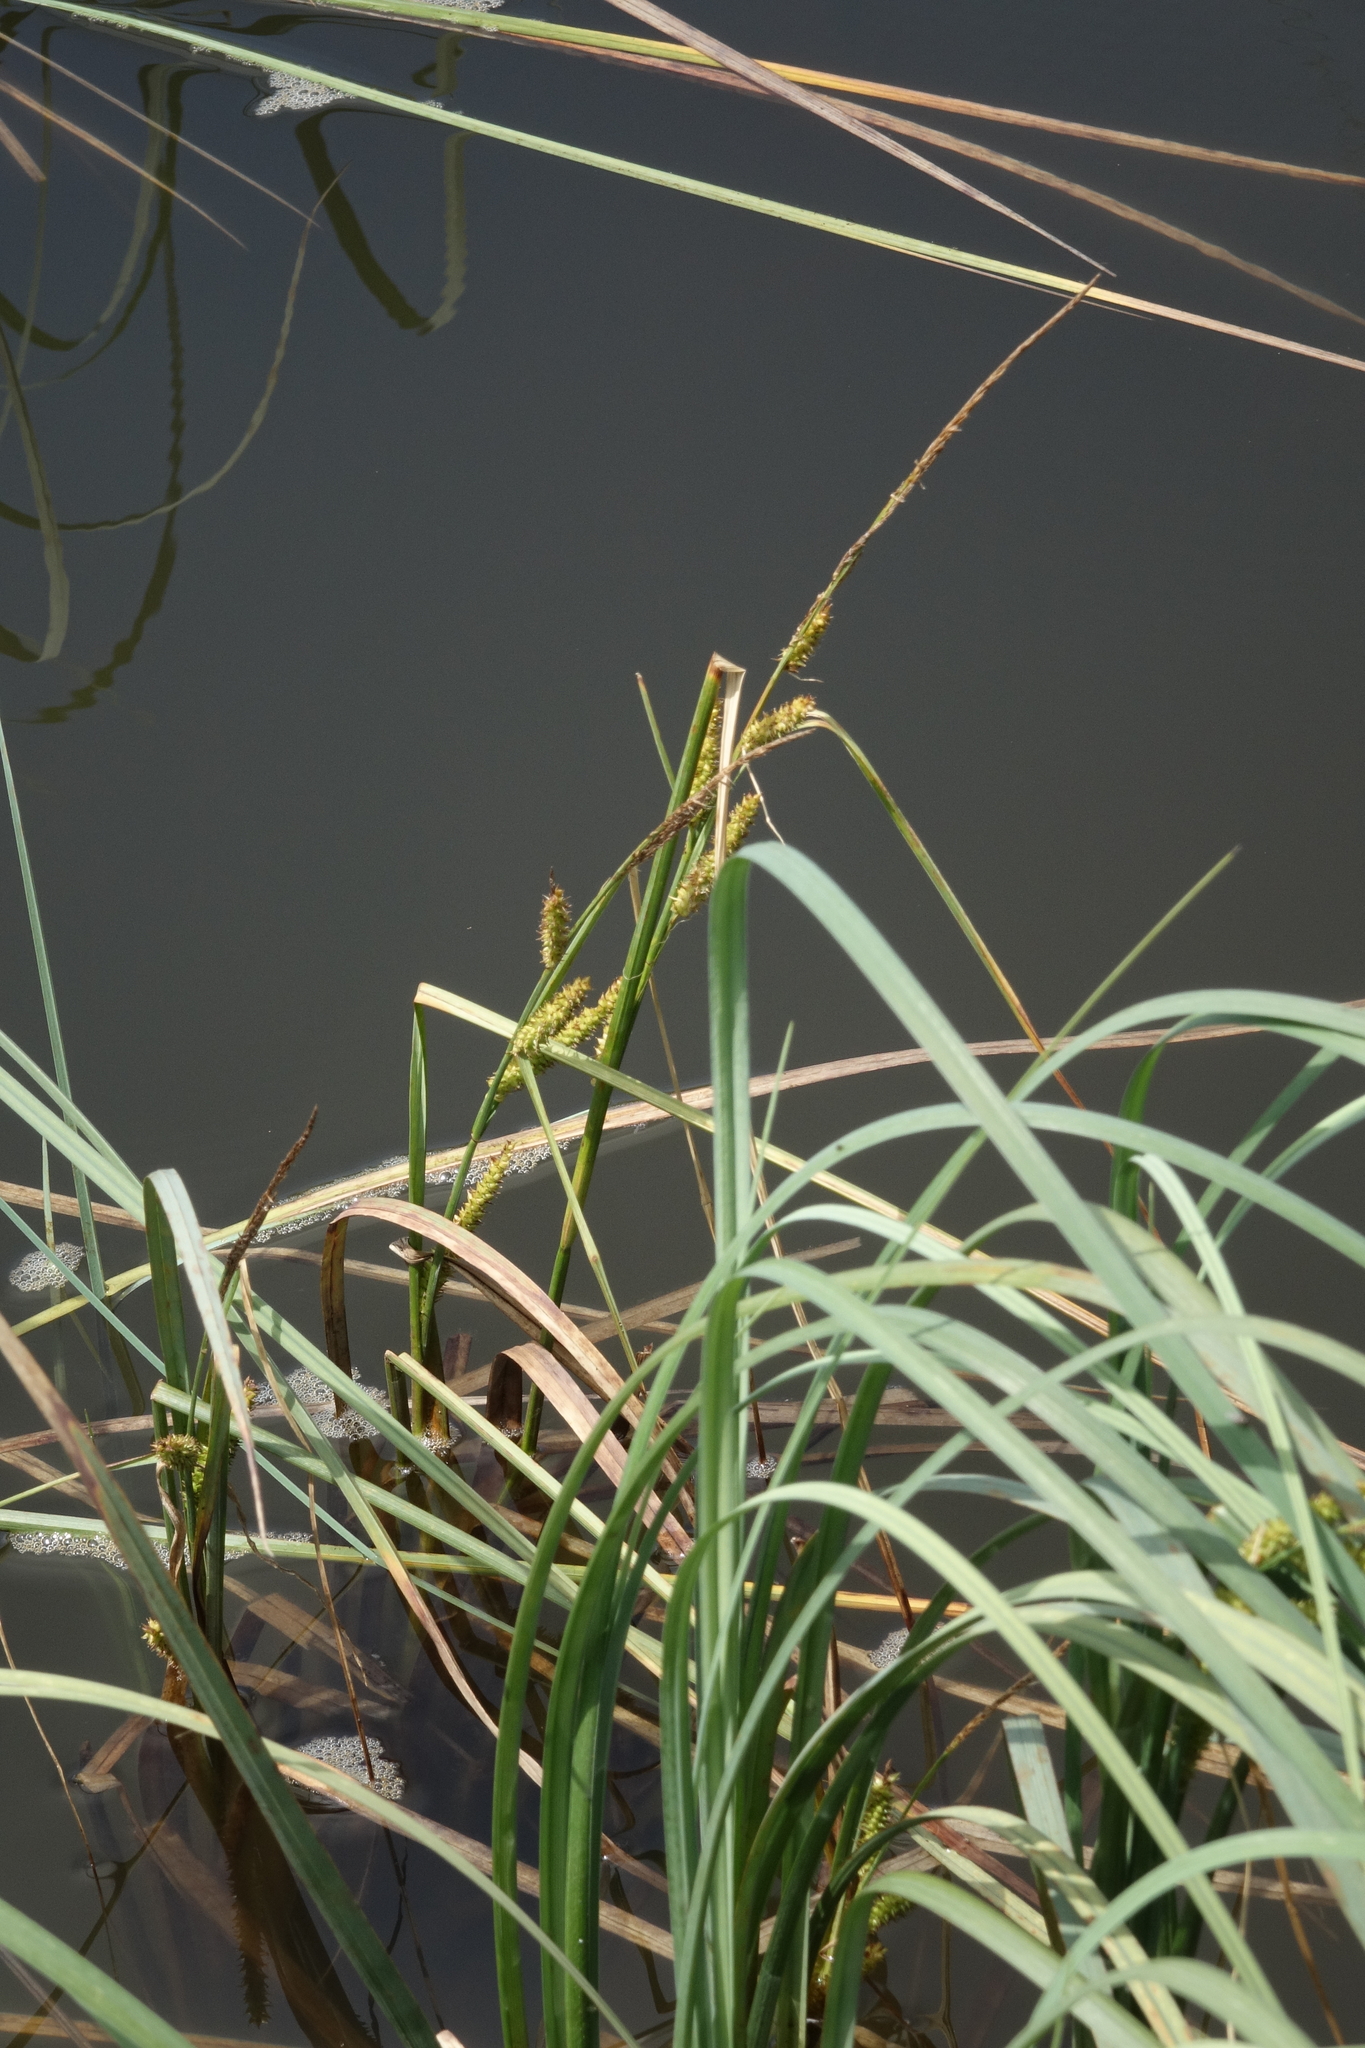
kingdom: Plantae
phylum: Tracheophyta
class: Liliopsida
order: Poales
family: Cyperaceae
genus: Carex
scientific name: Carex rostrata
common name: Bottle sedge
